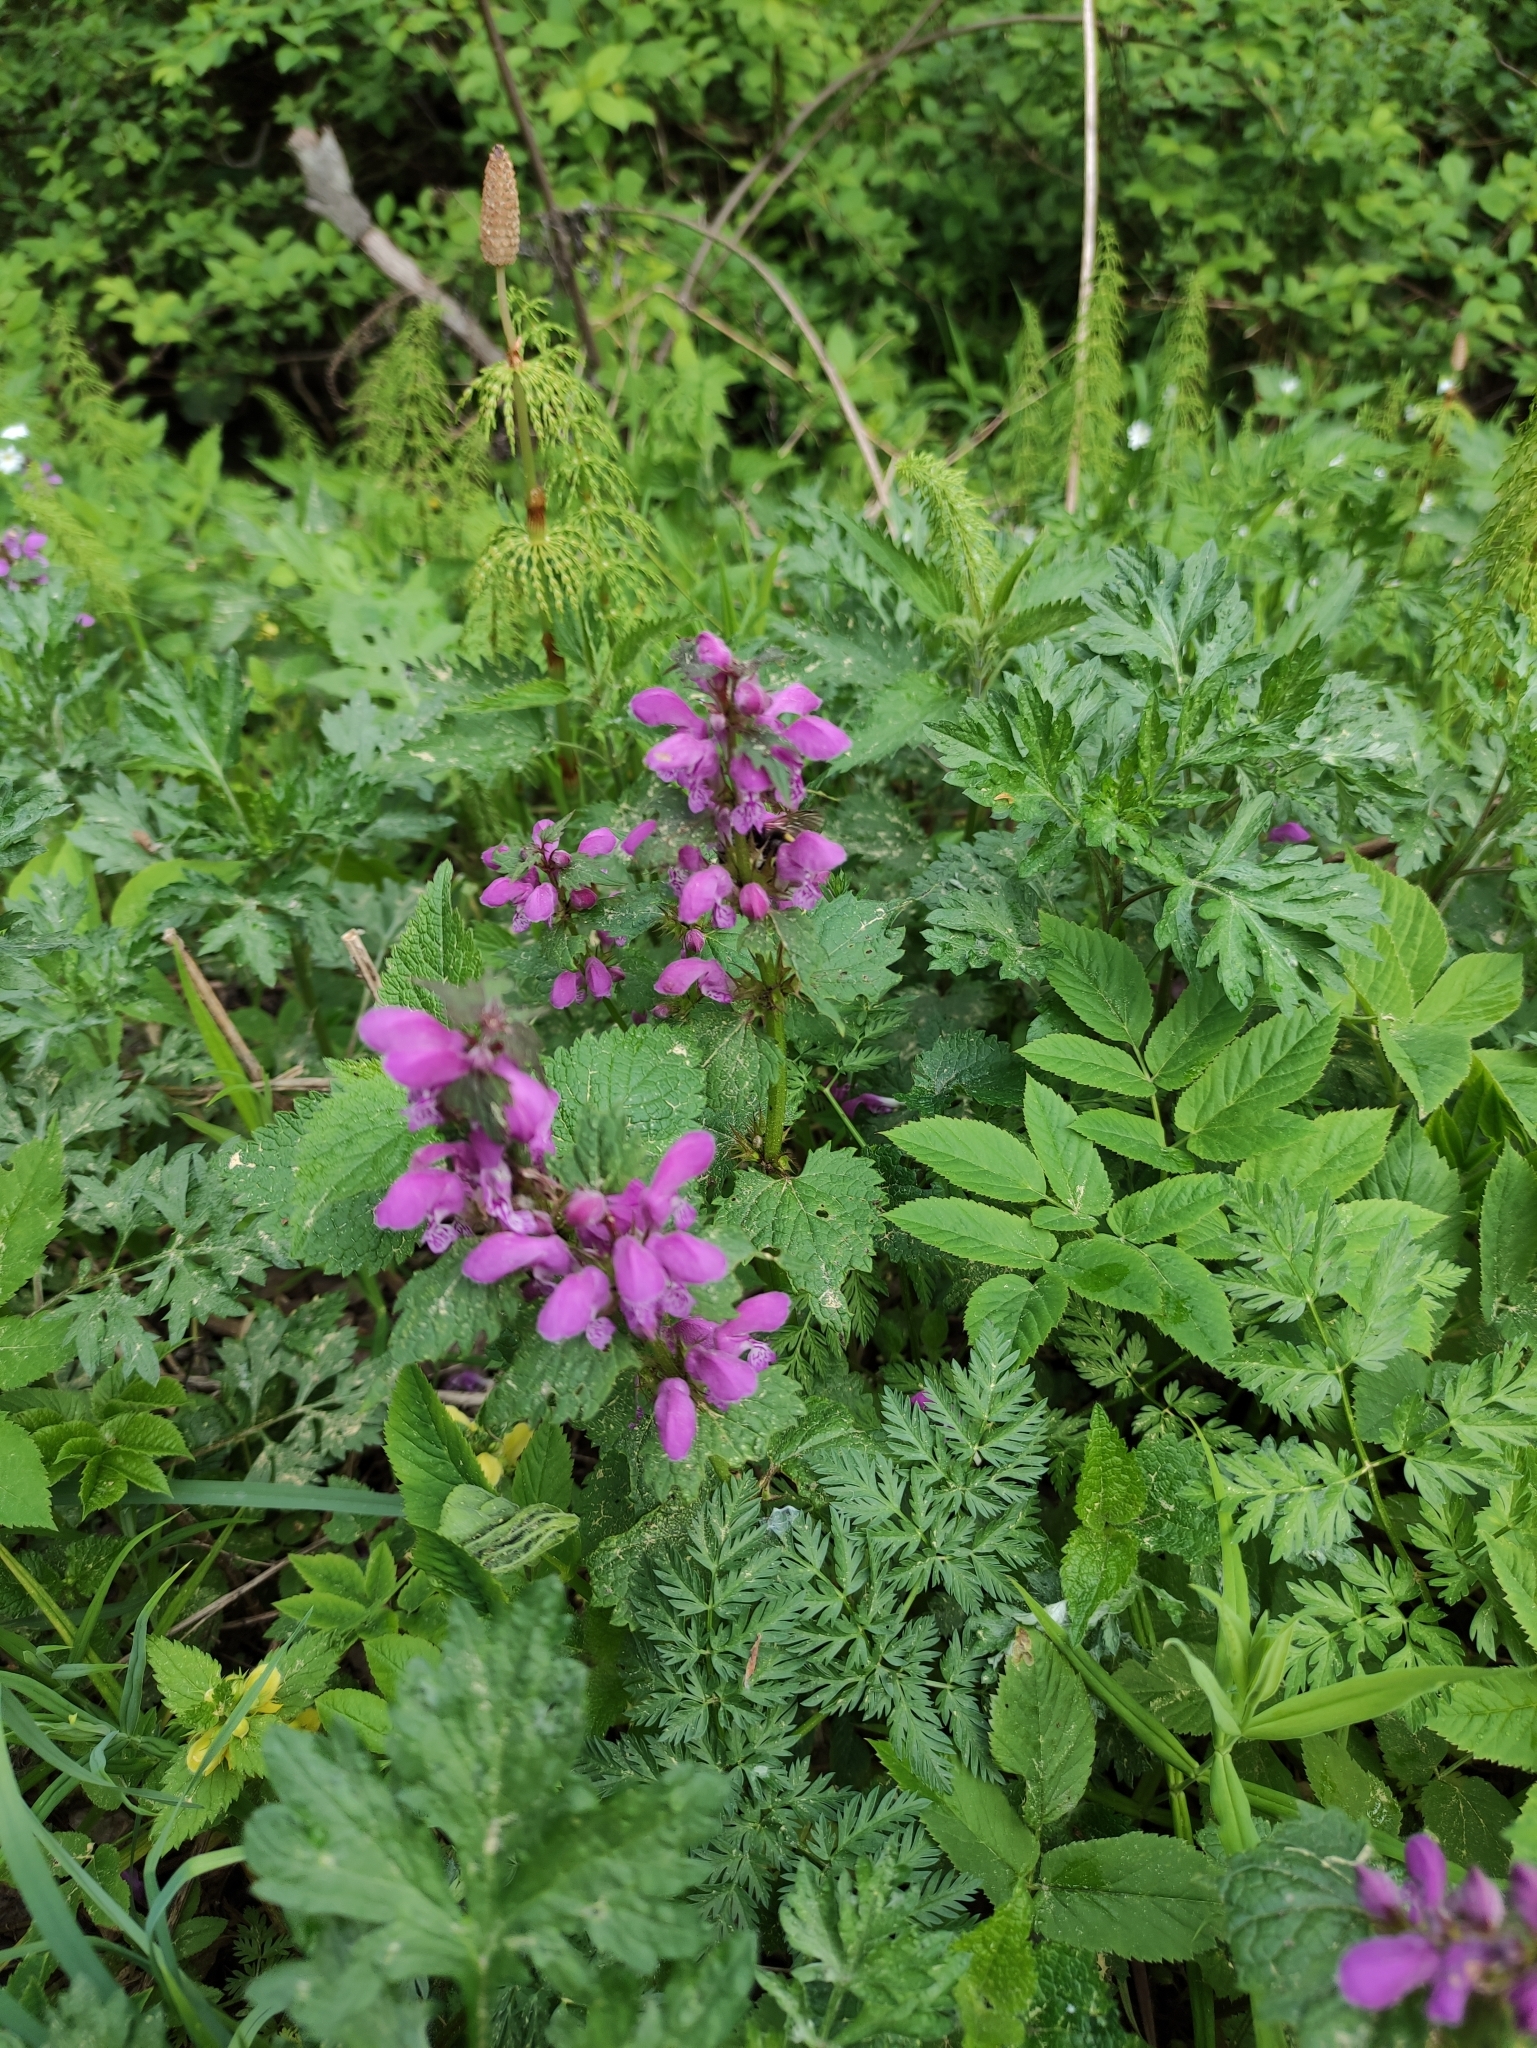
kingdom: Plantae
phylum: Tracheophyta
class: Magnoliopsida
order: Lamiales
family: Lamiaceae
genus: Lamium
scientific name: Lamium maculatum
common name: Spotted dead-nettle
